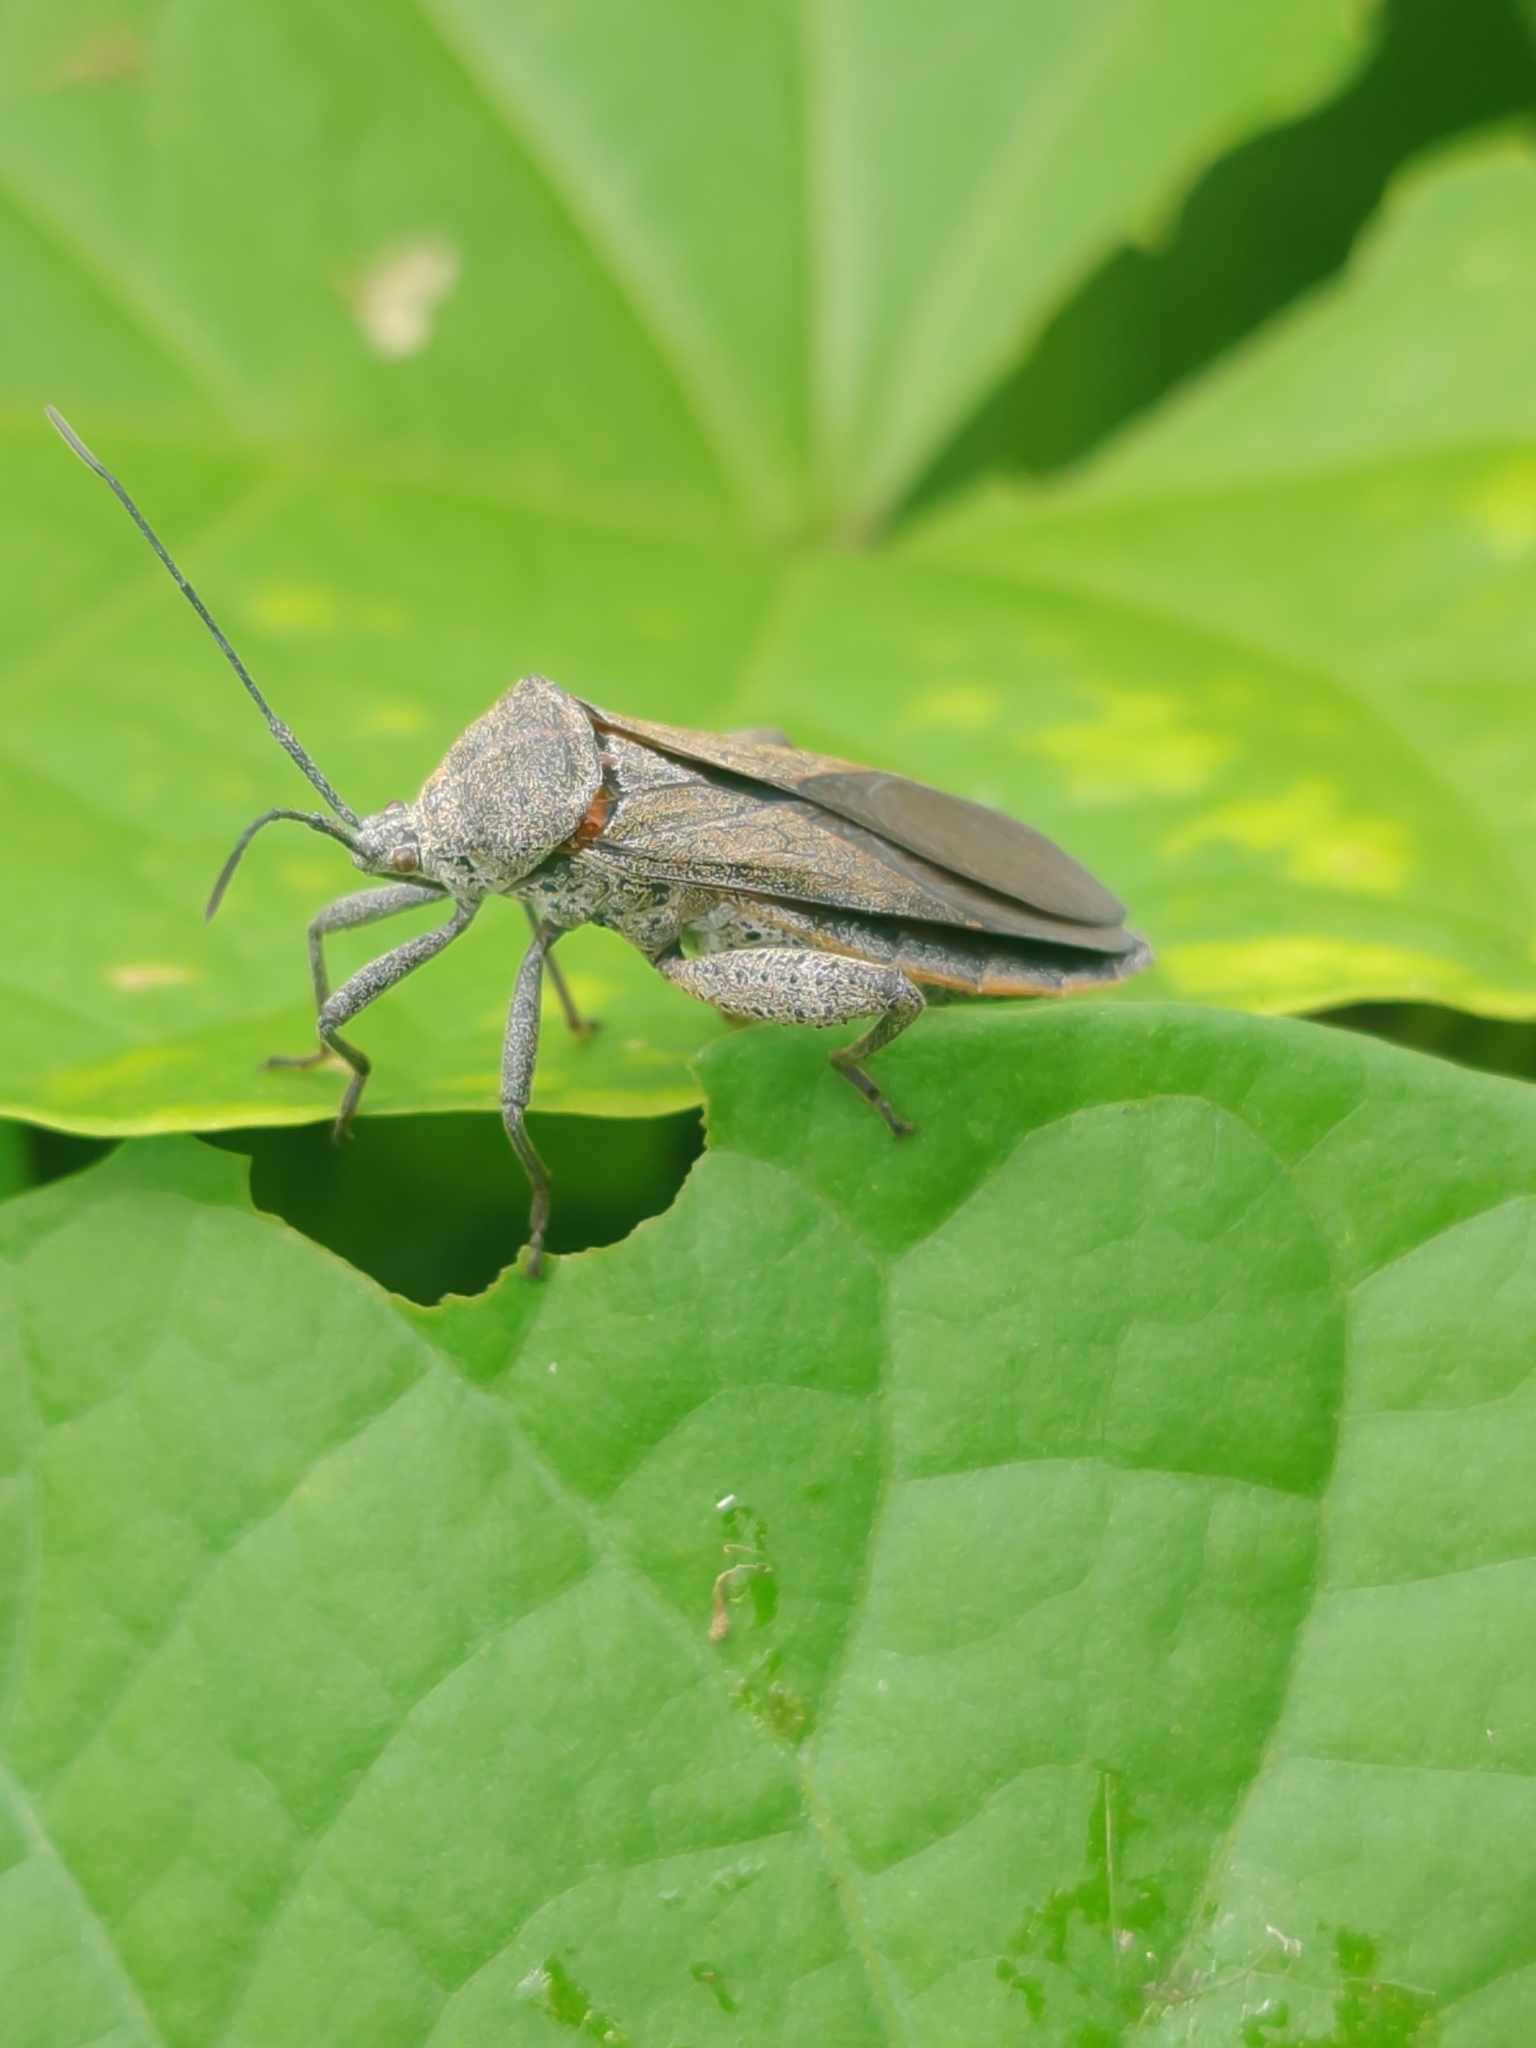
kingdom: Animalia
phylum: Arthropoda
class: Insecta
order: Hemiptera
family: Coreidae
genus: Physomerus
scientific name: Physomerus grossipes
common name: Squash bug
